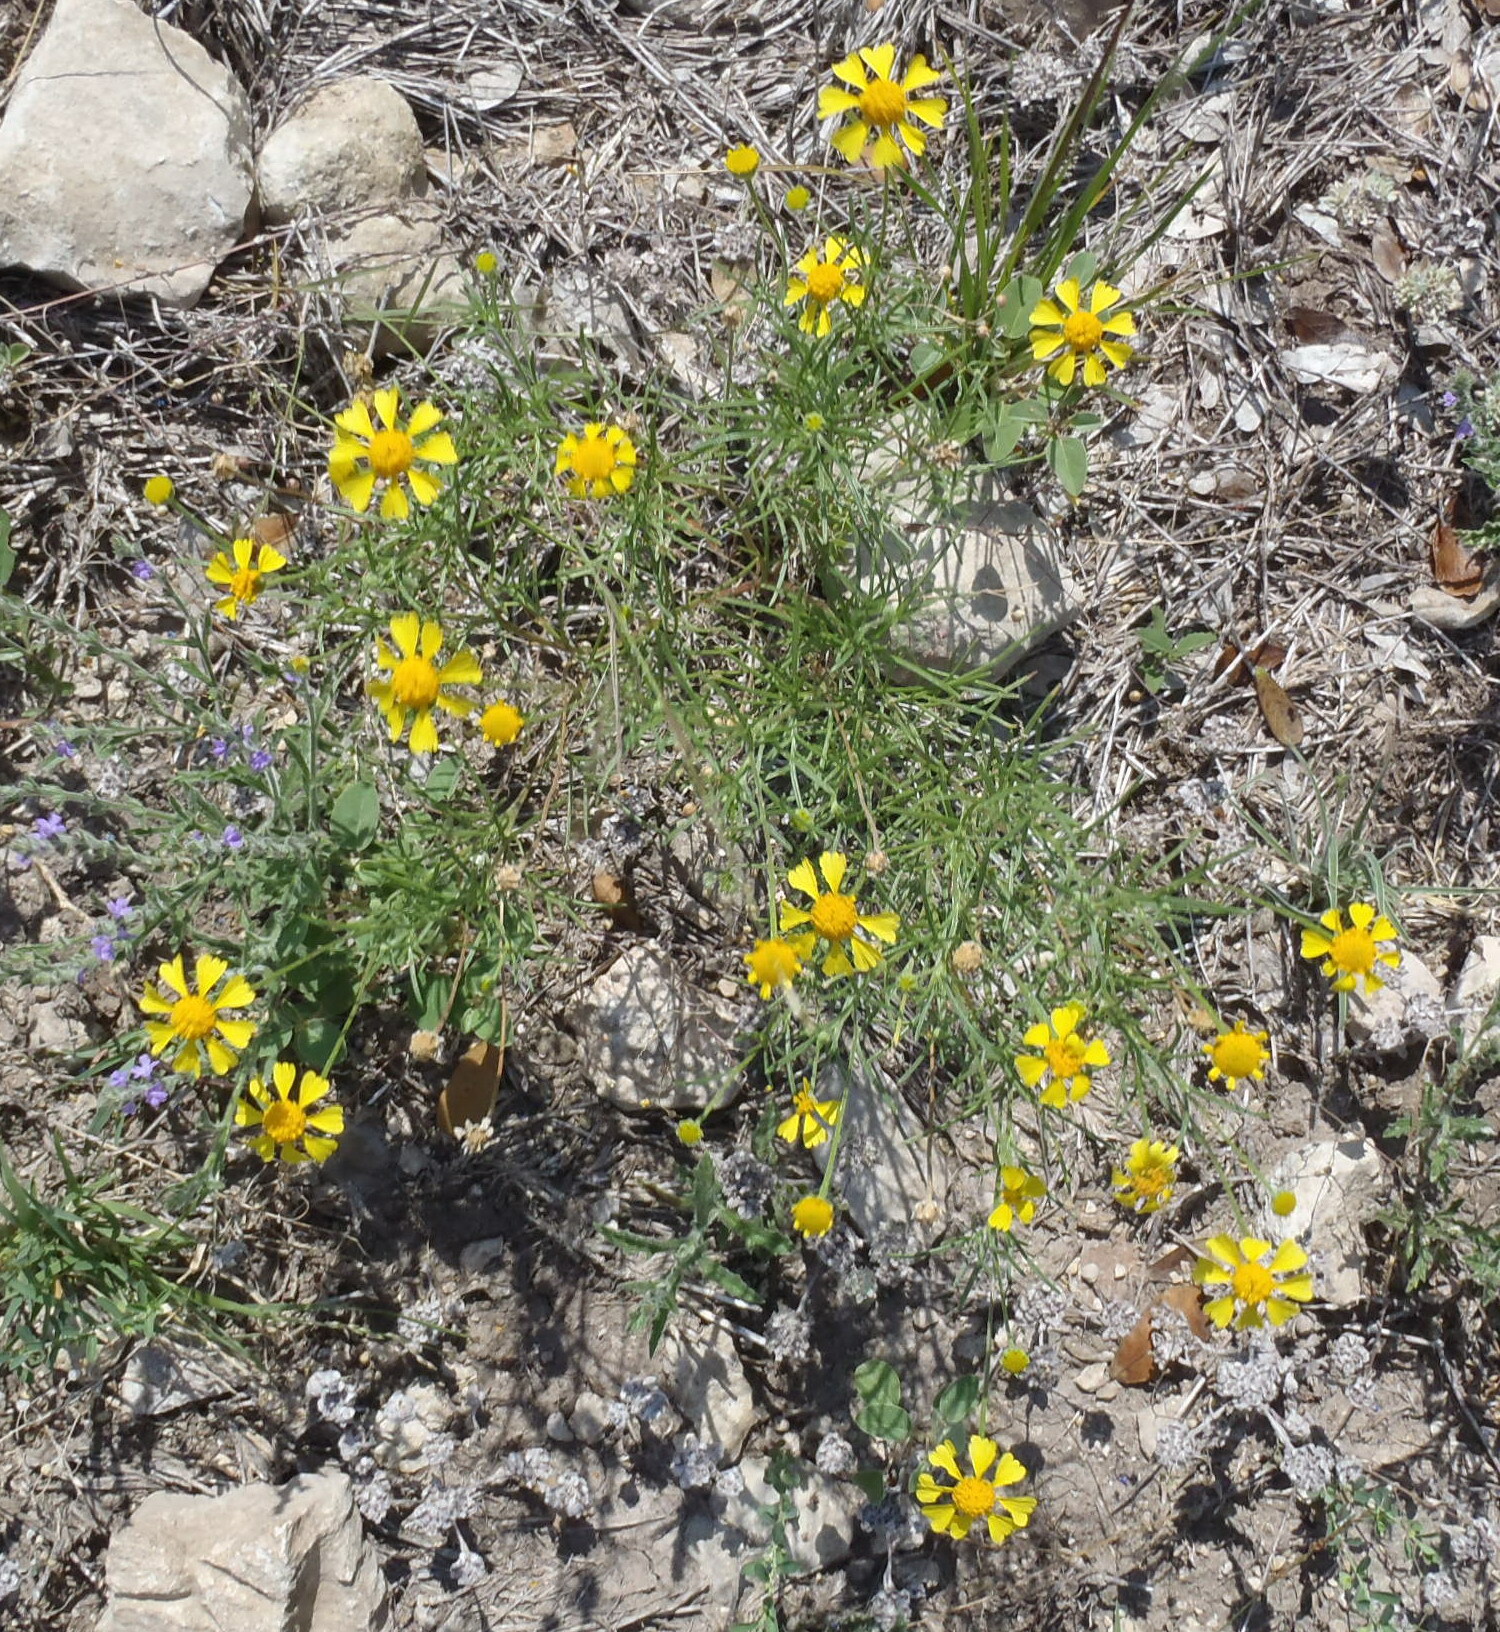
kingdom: Plantae
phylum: Tracheophyta
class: Magnoliopsida
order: Asterales
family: Asteraceae
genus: Helenium
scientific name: Helenium amarum
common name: Bitter sneezeweed
